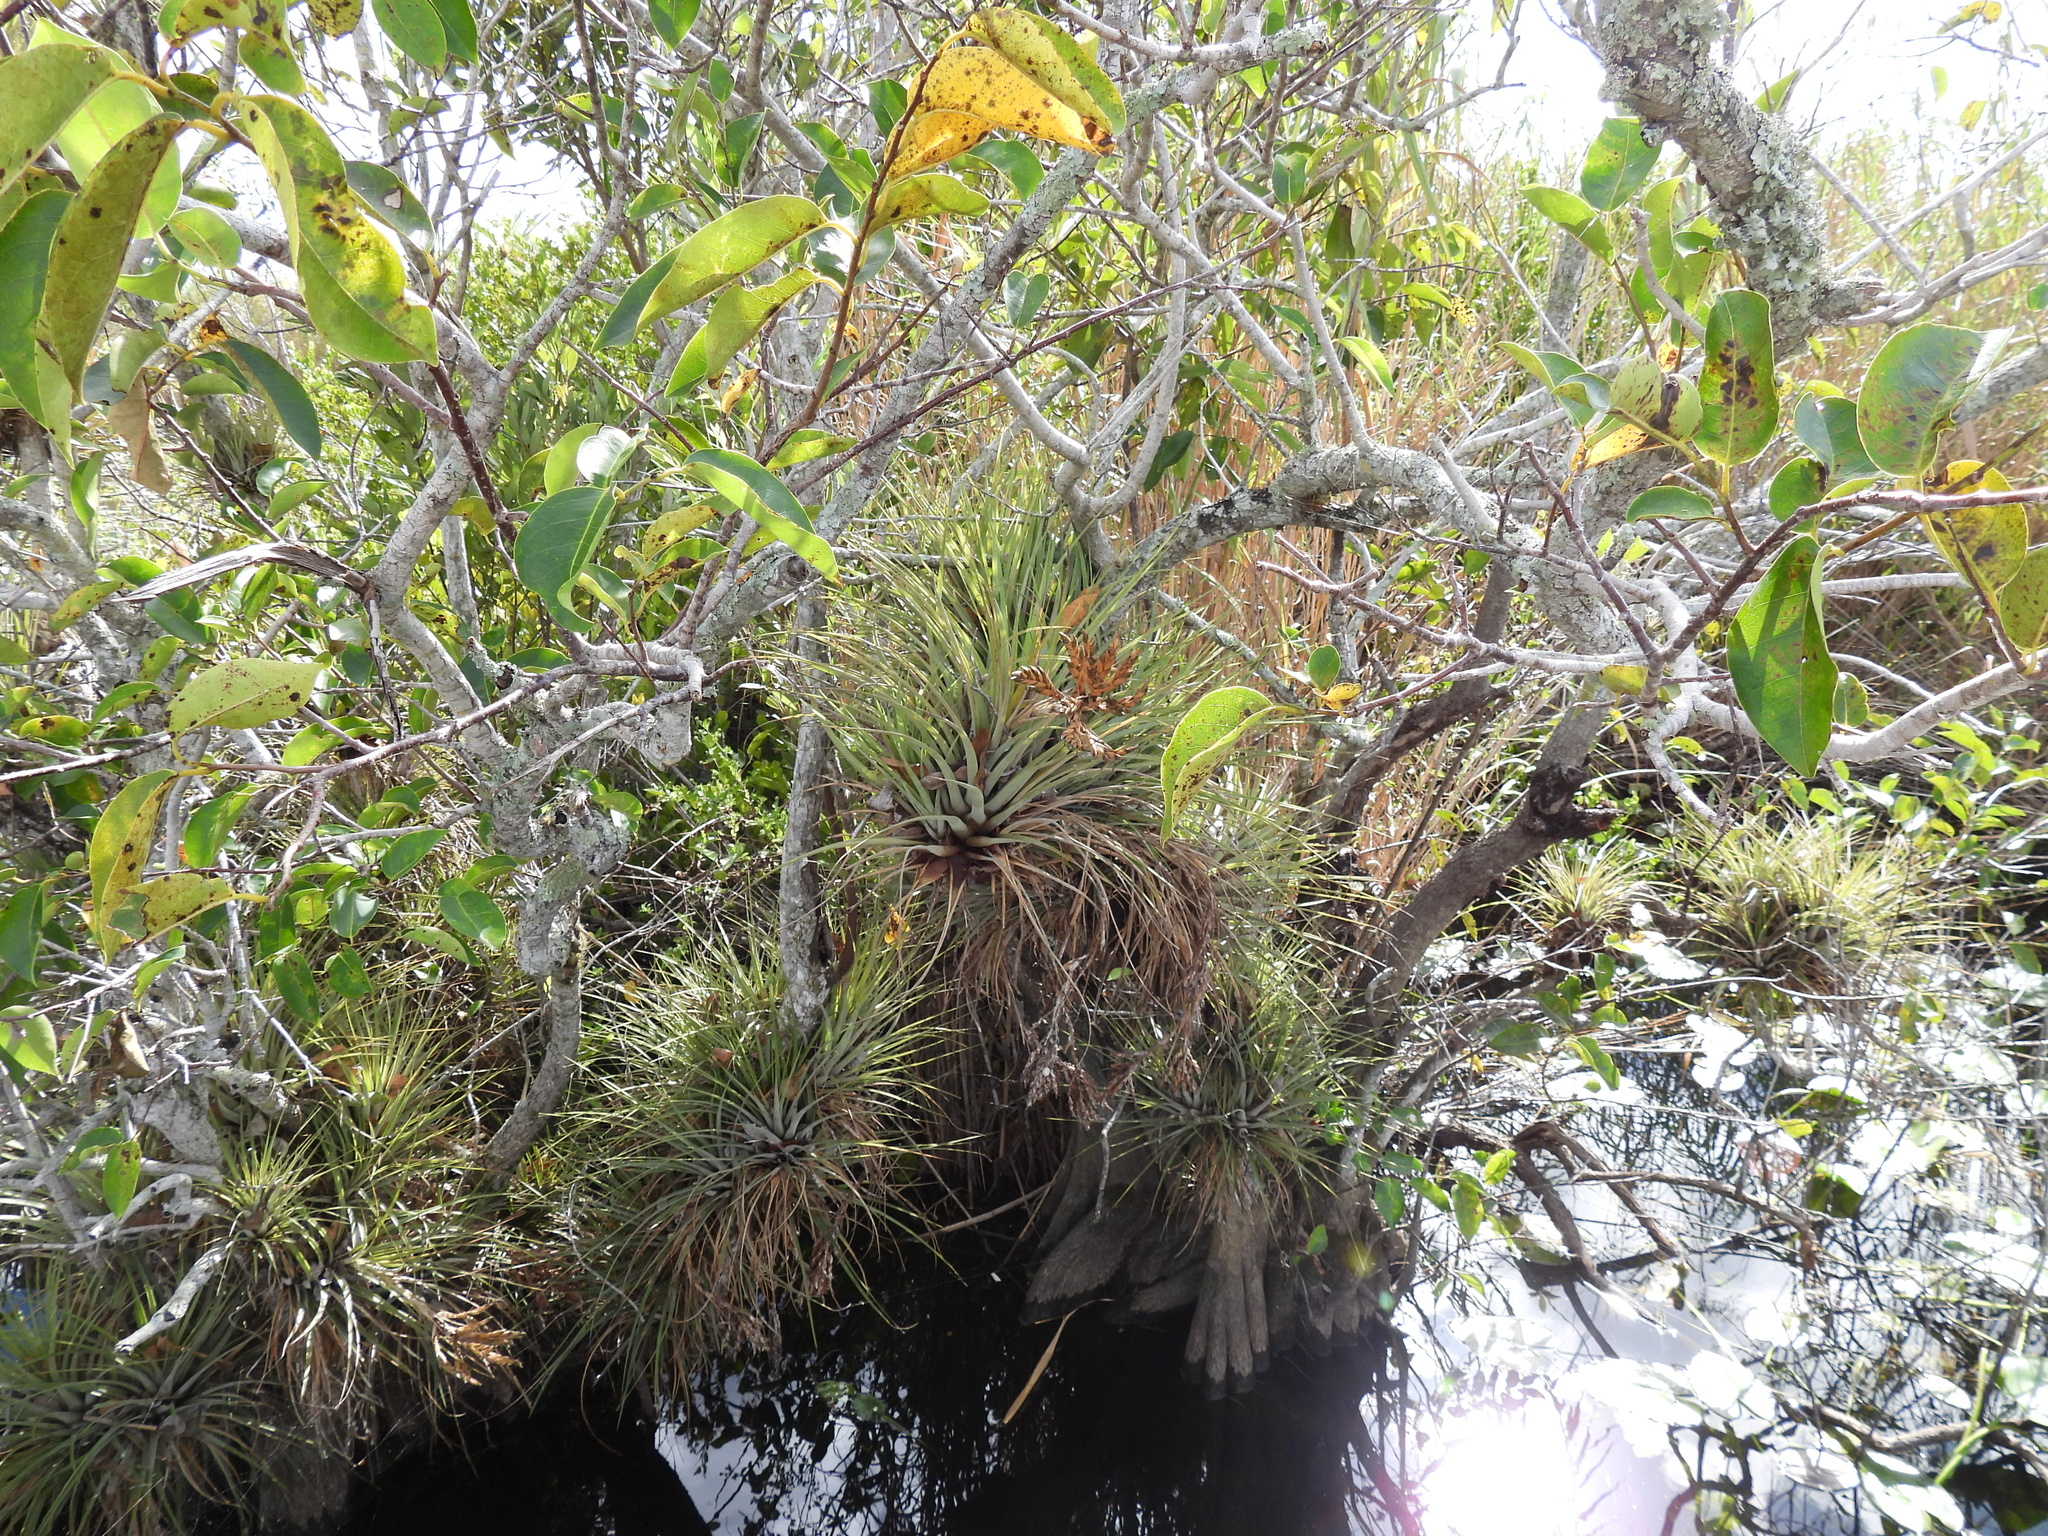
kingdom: Plantae
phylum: Tracheophyta
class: Liliopsida
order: Poales
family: Bromeliaceae
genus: Tillandsia
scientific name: Tillandsia fasciculata
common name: Giant airplant
